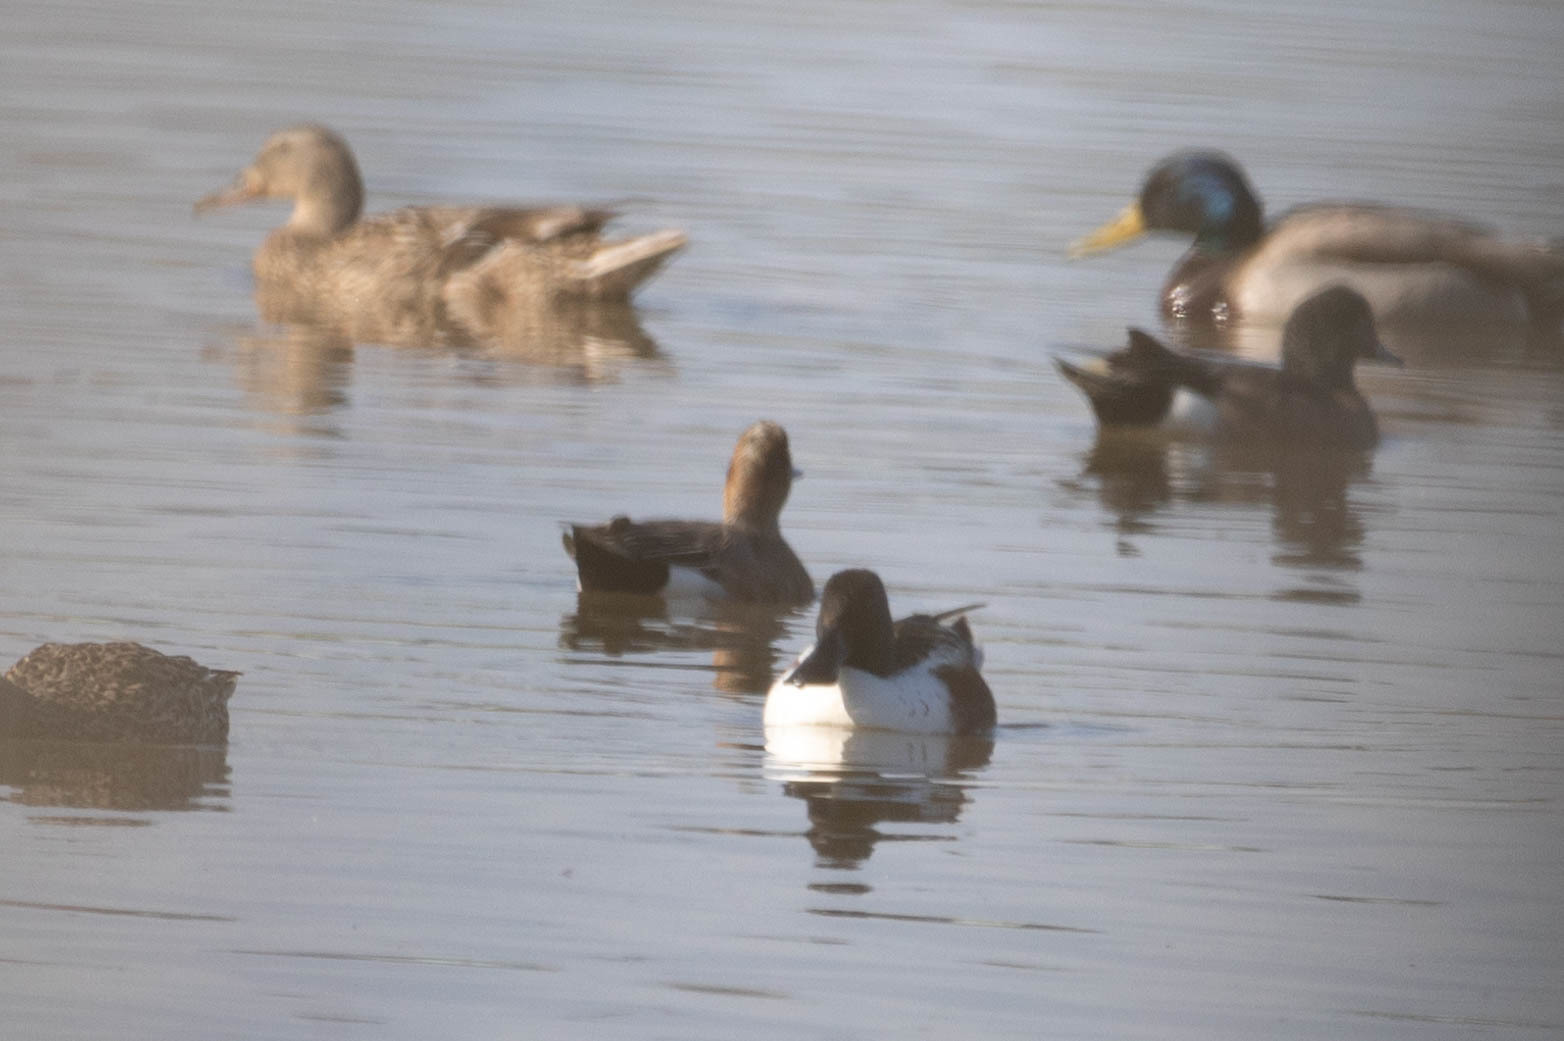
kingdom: Animalia
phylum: Chordata
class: Aves
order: Anseriformes
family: Anatidae
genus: Mareca
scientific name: Mareca penelope
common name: Eurasian wigeon
